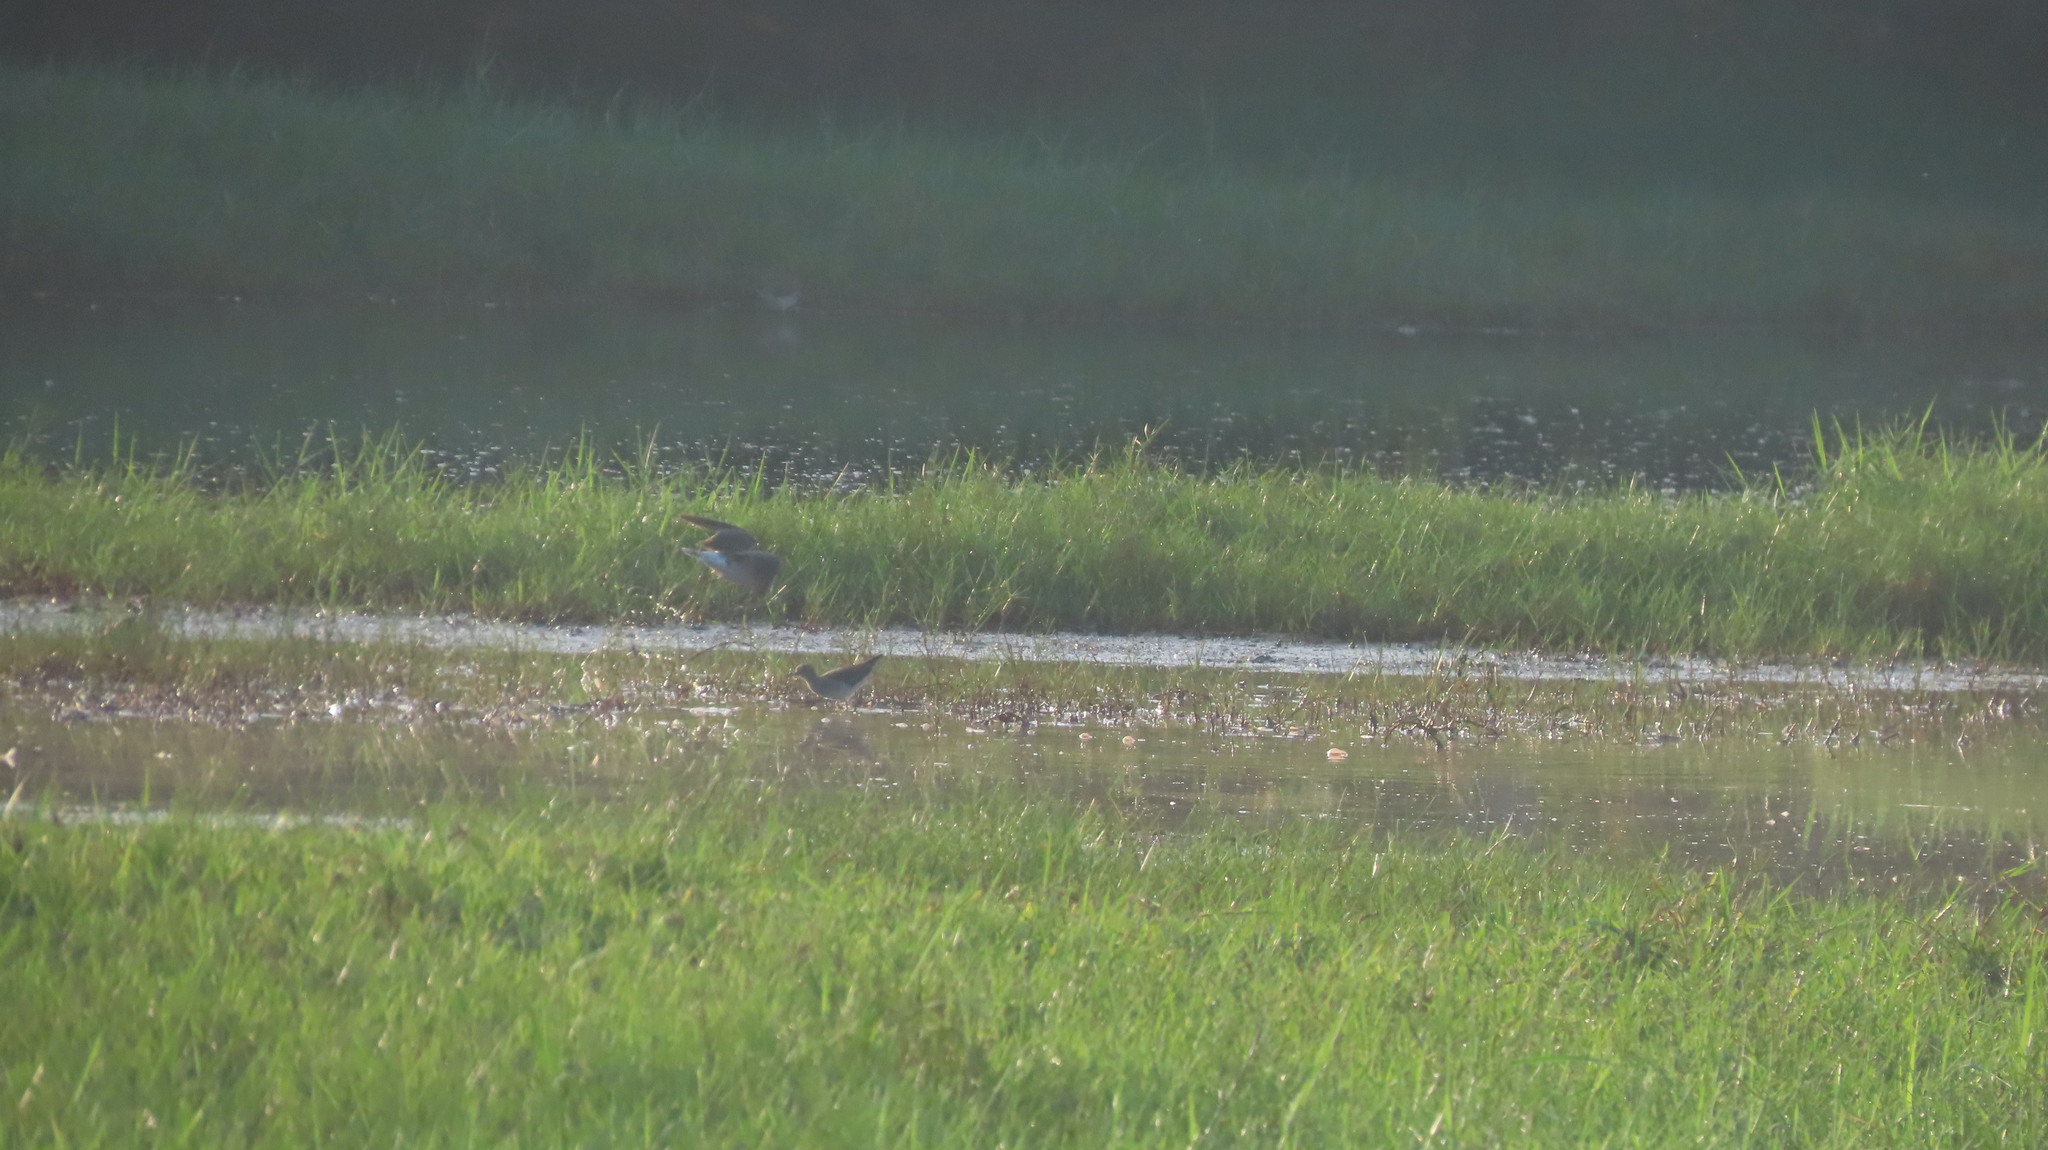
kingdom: Animalia
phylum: Chordata
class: Aves
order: Charadriiformes
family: Scolopacidae
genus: Tringa
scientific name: Tringa glareola
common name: Wood sandpiper
